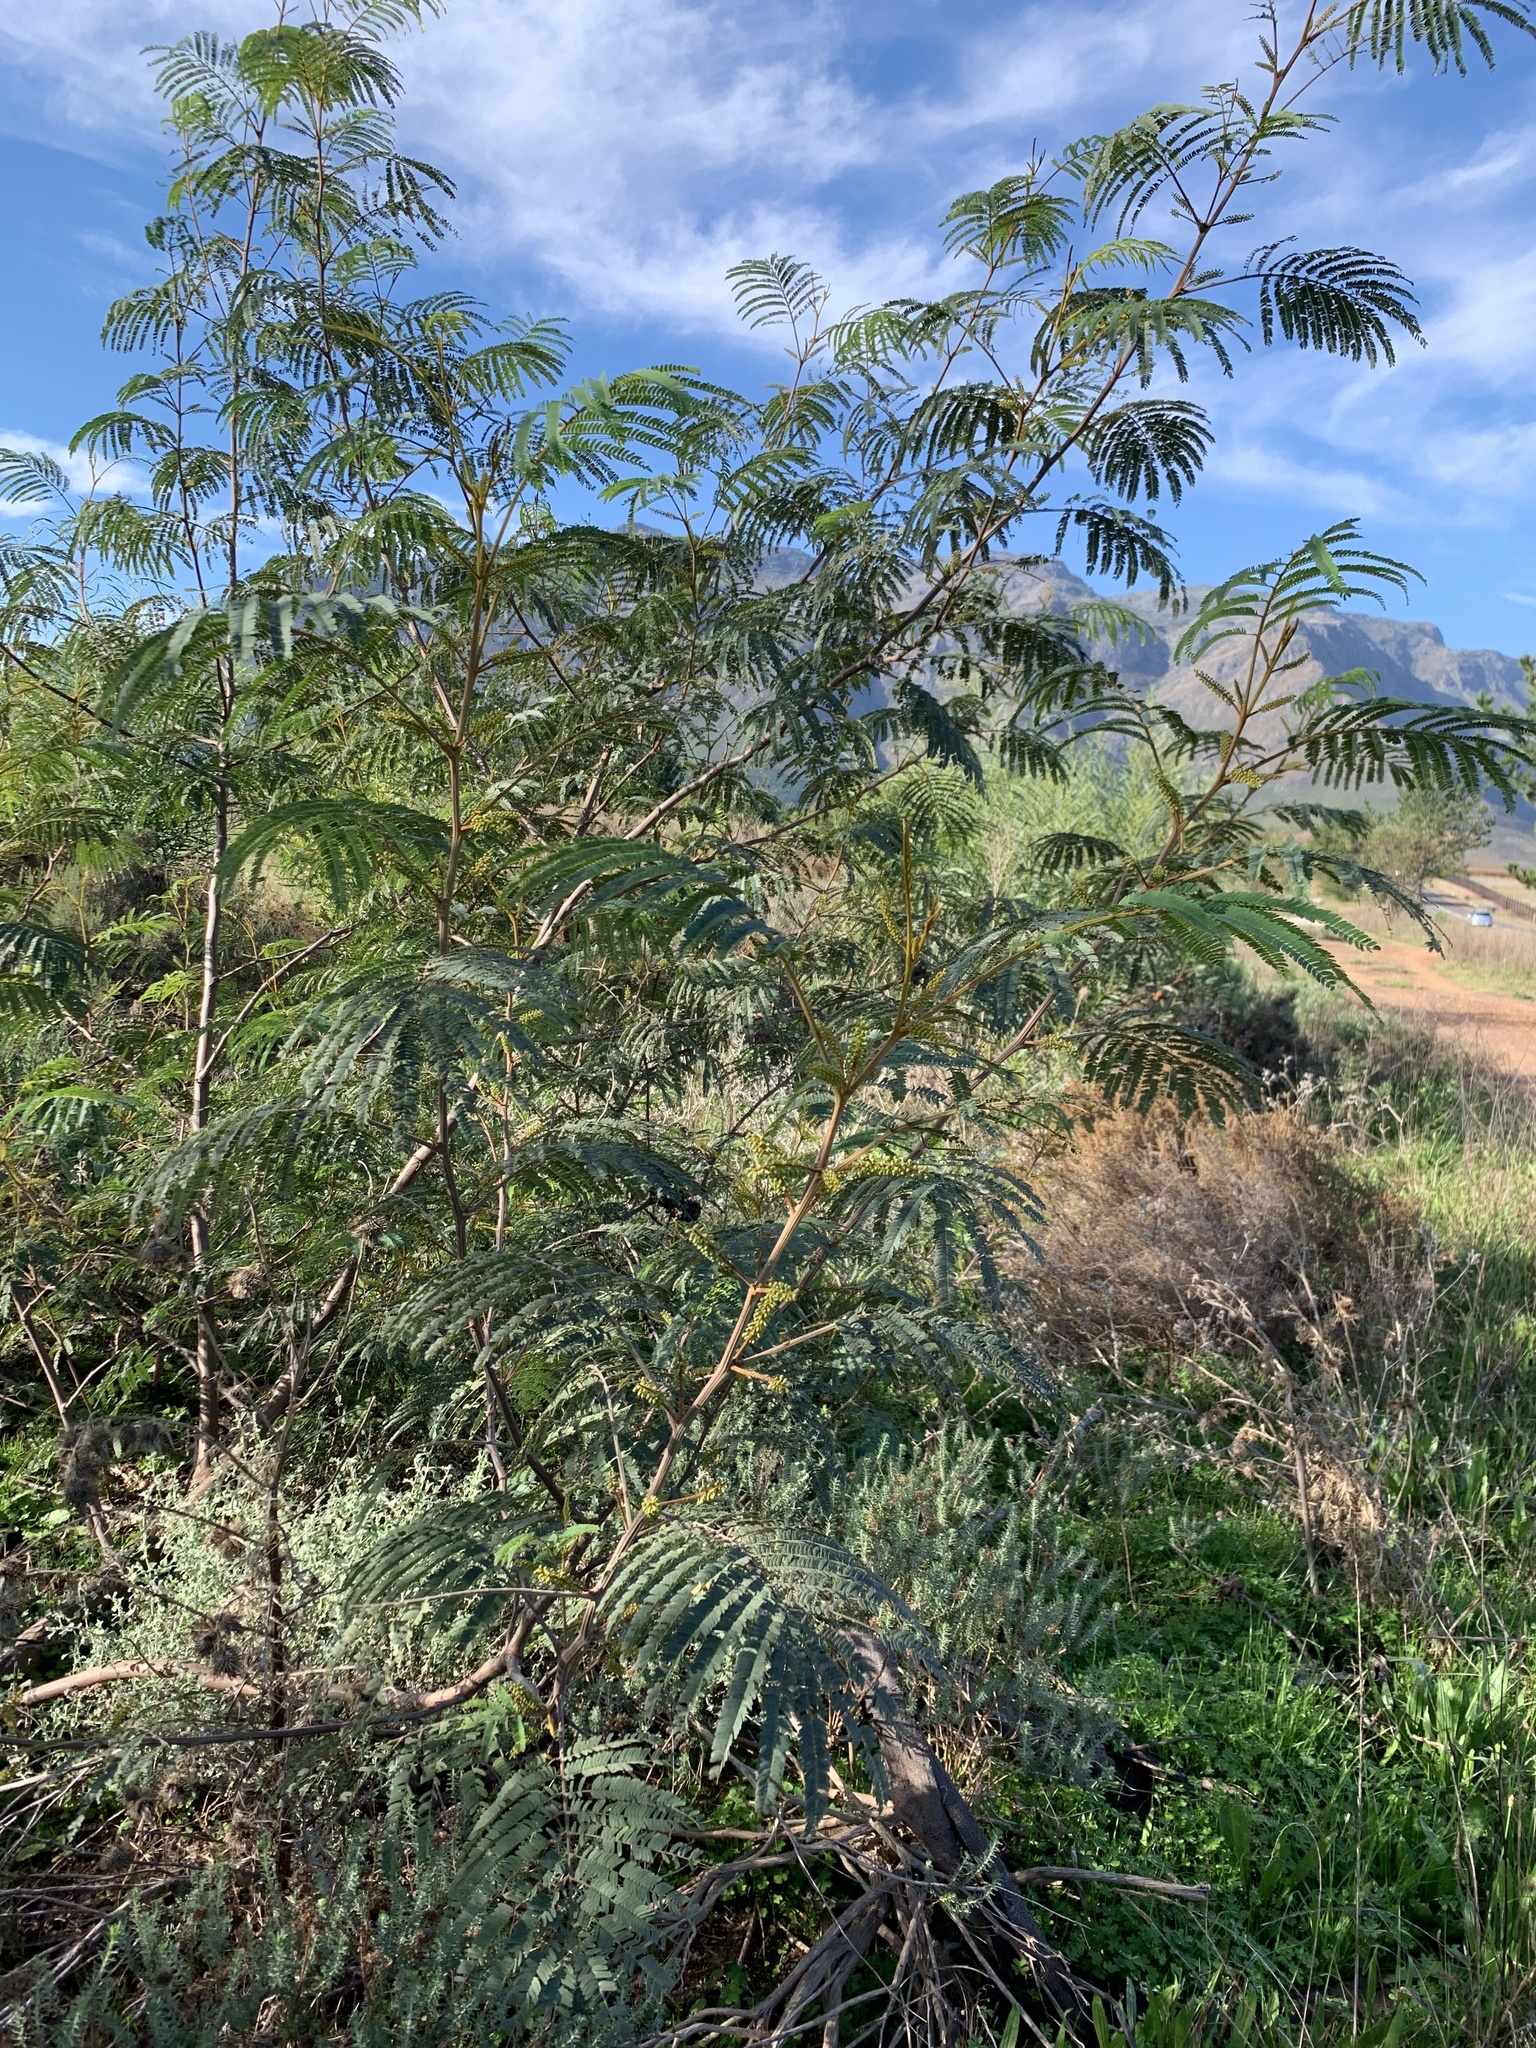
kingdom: Plantae
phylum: Tracheophyta
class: Magnoliopsida
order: Fabales
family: Fabaceae
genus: Paraserianthes
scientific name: Paraserianthes lophantha
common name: Plume albizia
